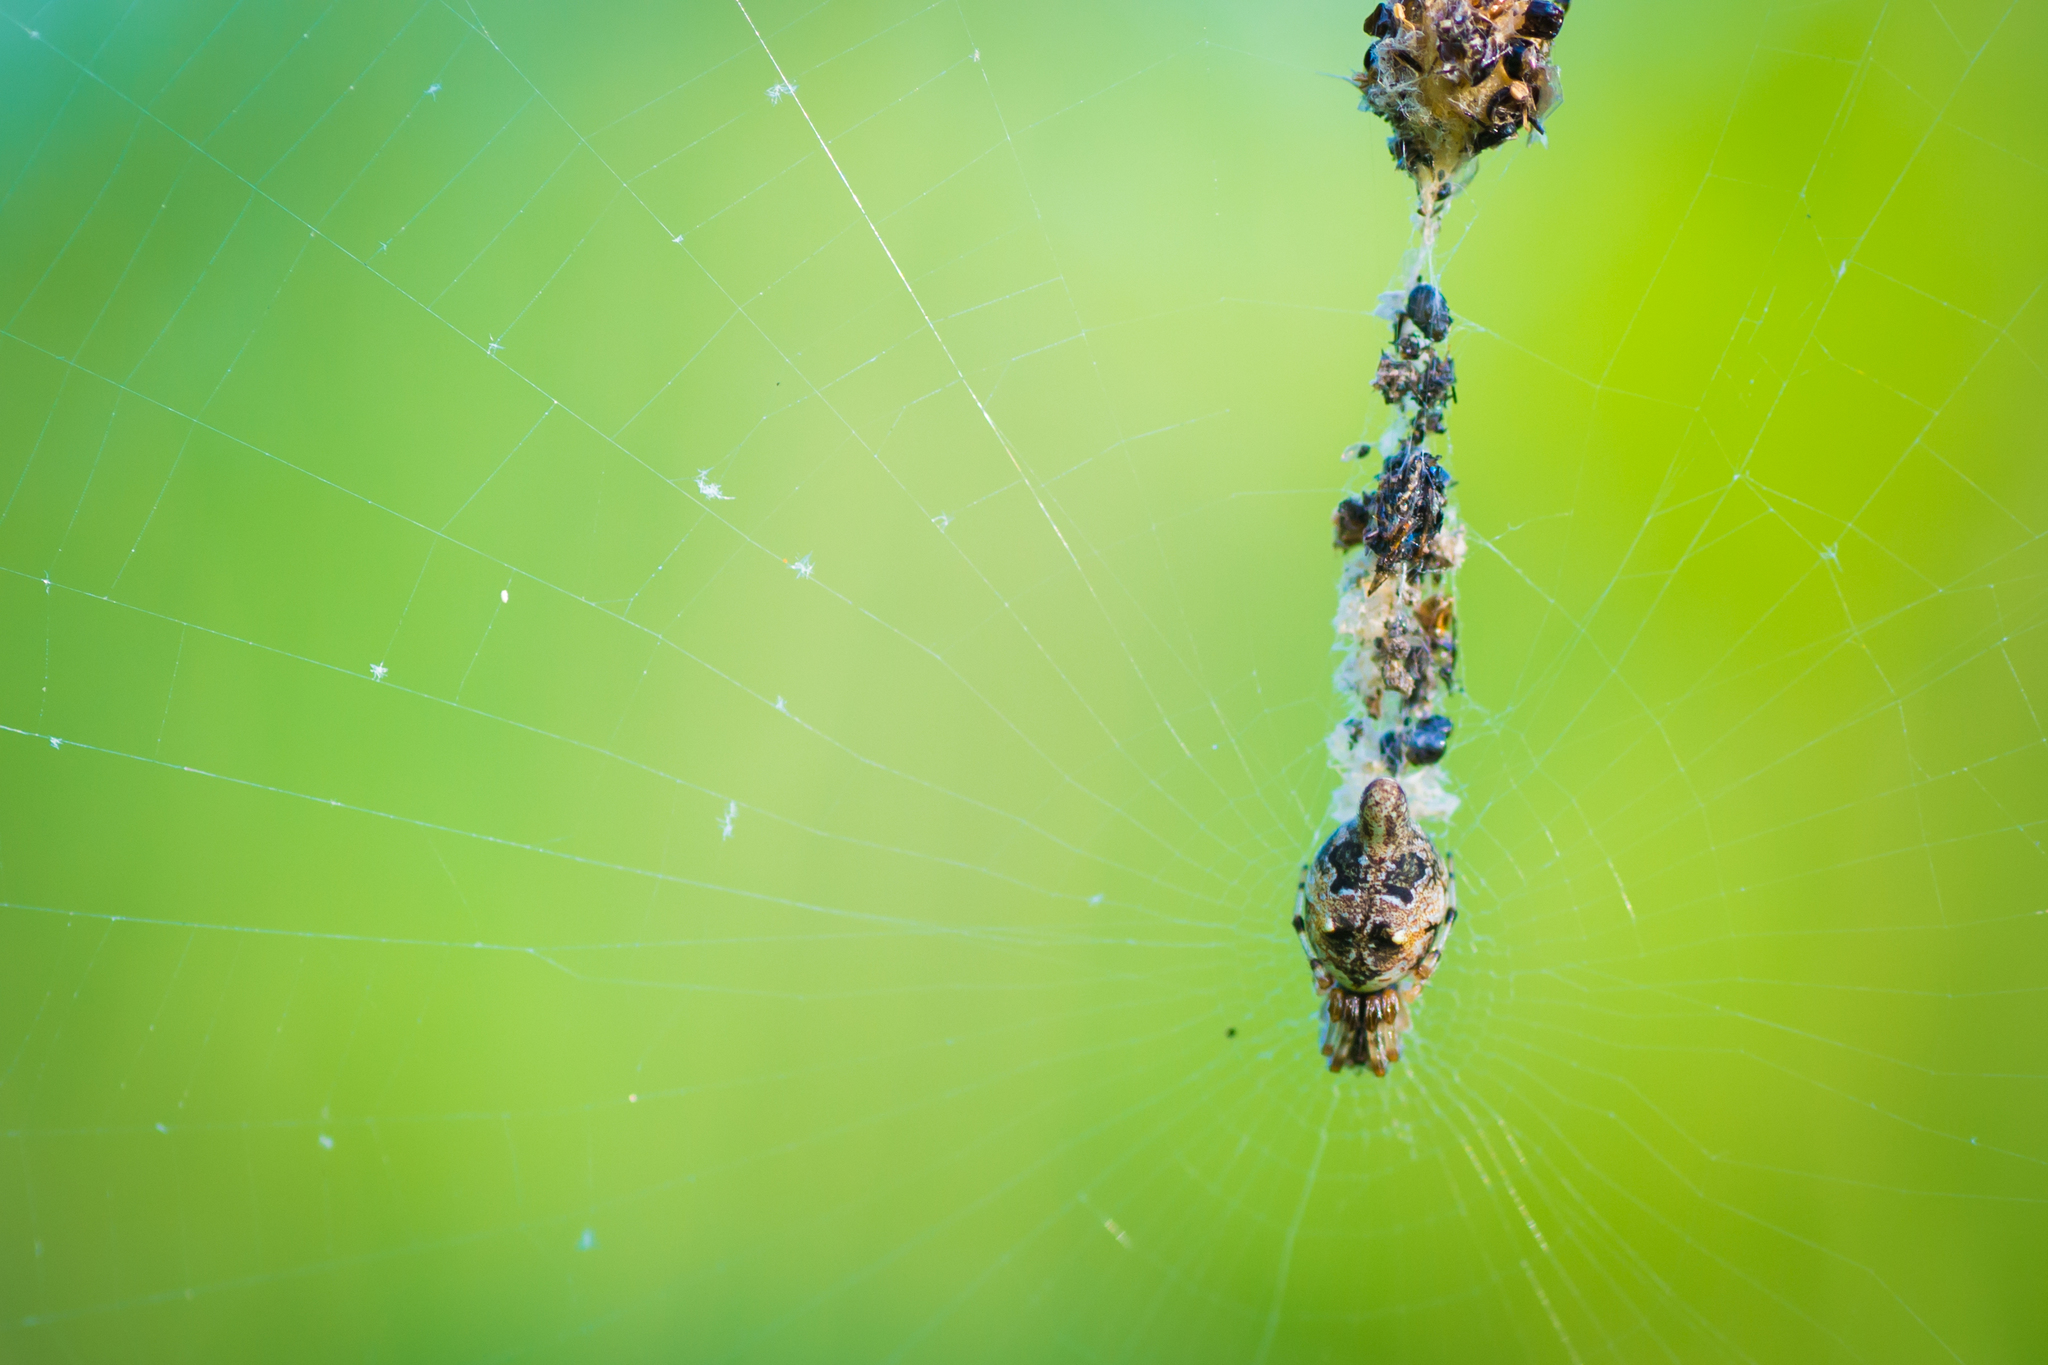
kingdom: Animalia
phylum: Arthropoda
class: Arachnida
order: Araneae
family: Araneidae
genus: Cyclosa
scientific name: Cyclosa turbinata
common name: Orb weavers
